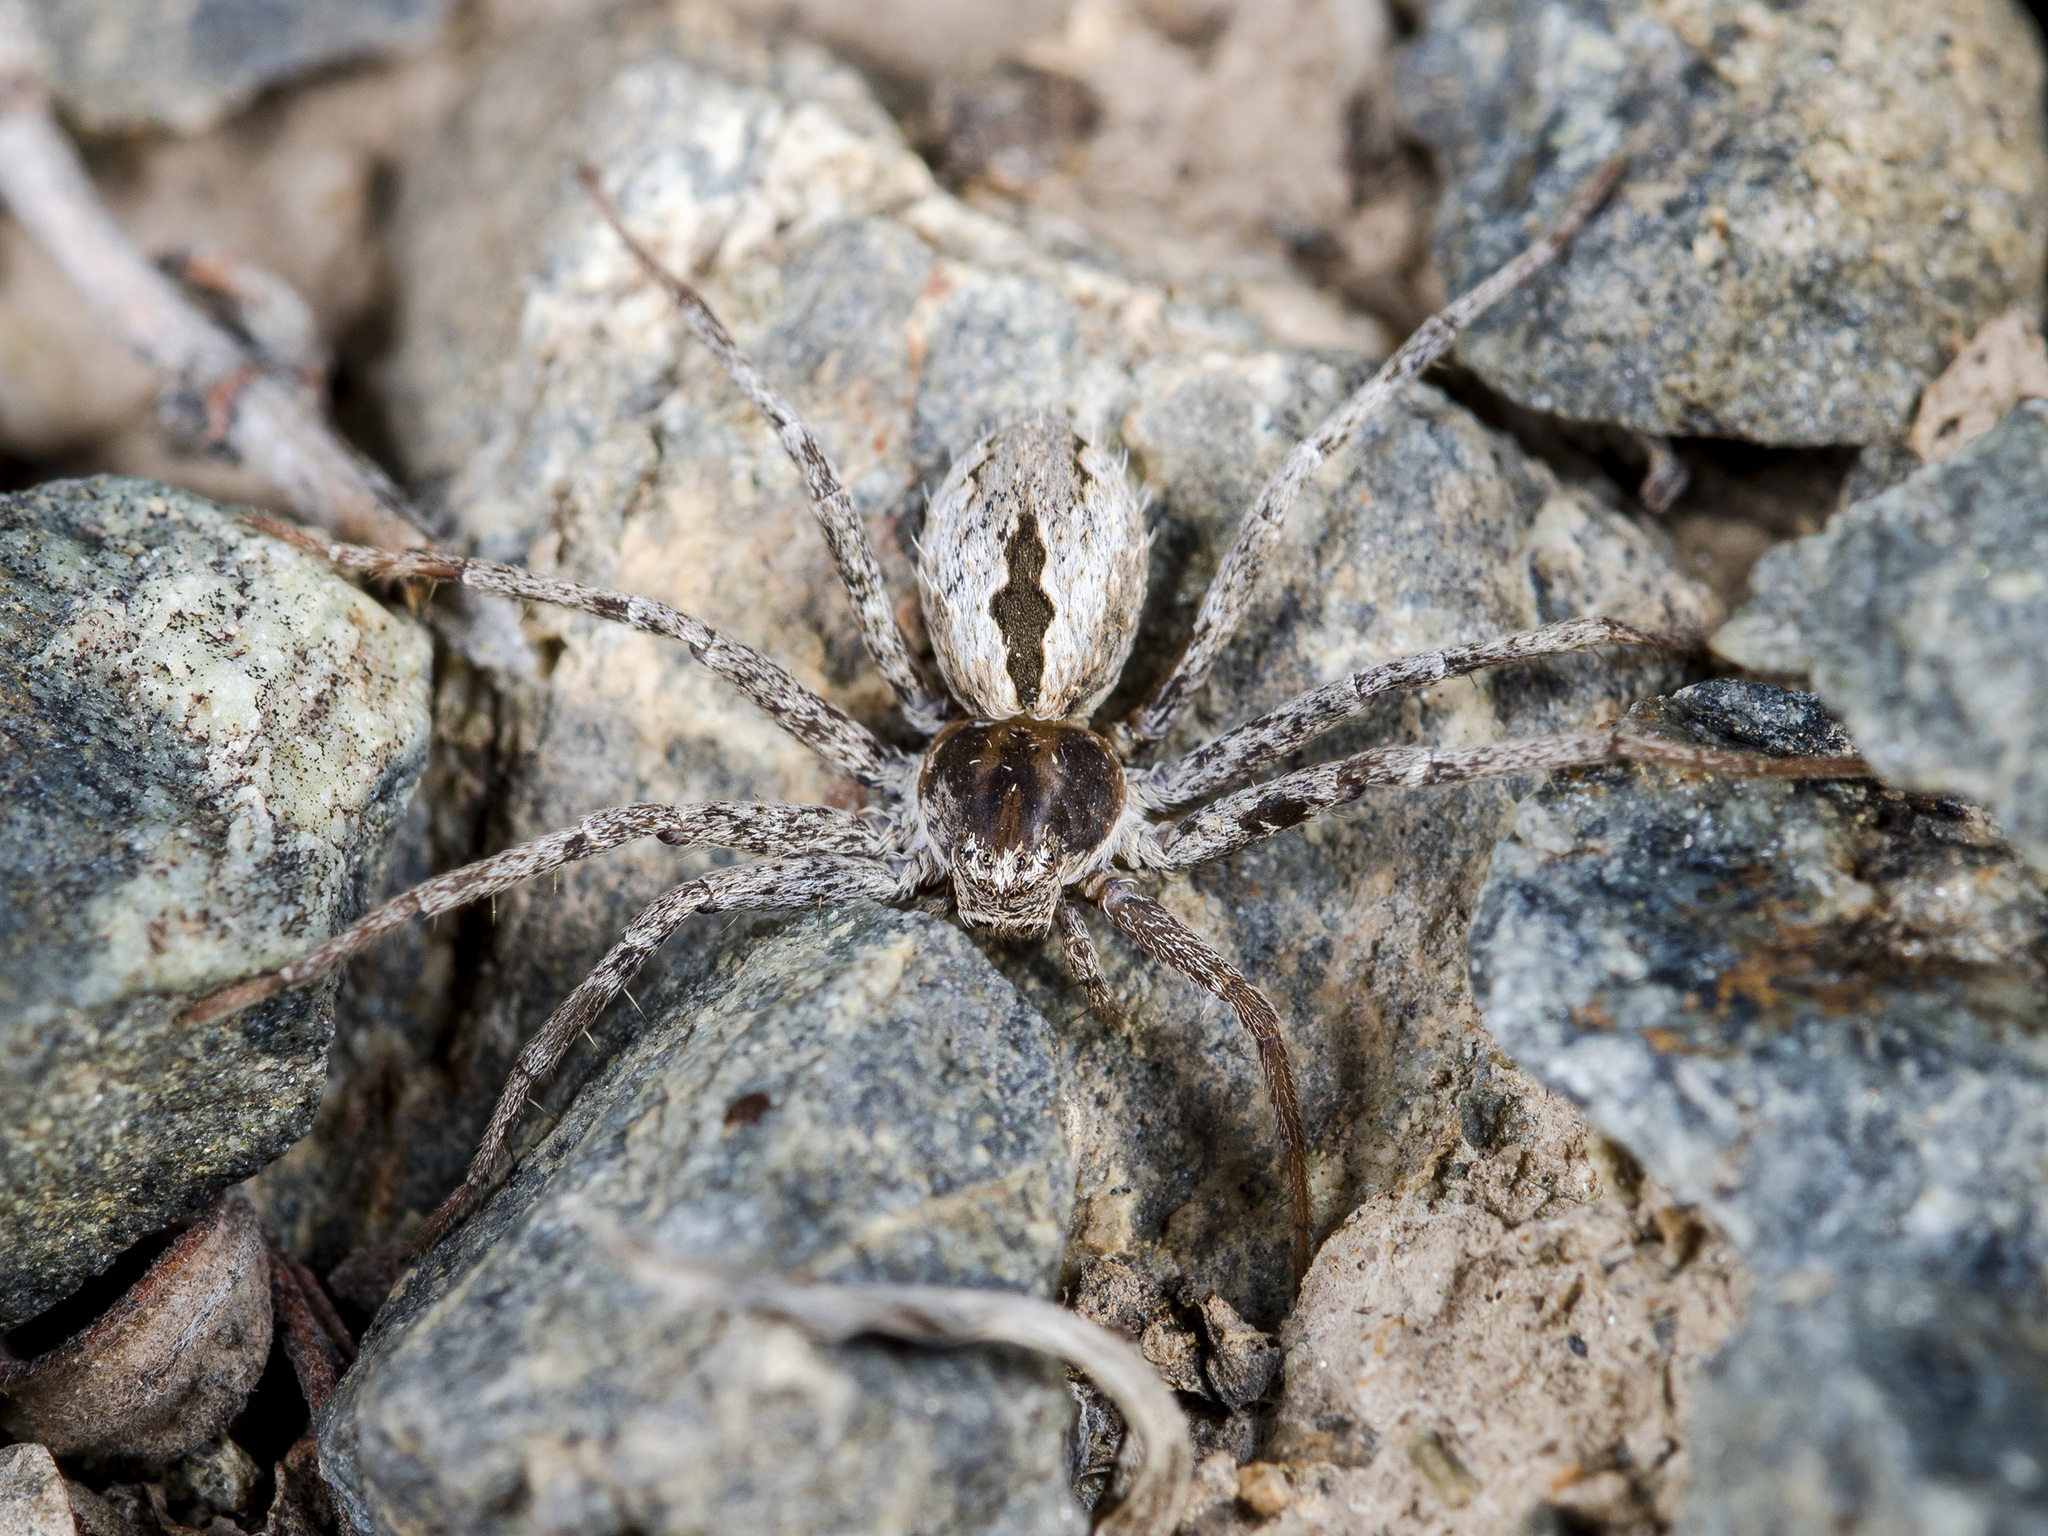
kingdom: Animalia
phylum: Arthropoda
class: Arachnida
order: Araneae
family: Philodromidae
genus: Thanatus
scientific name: Thanatus kitabensis
